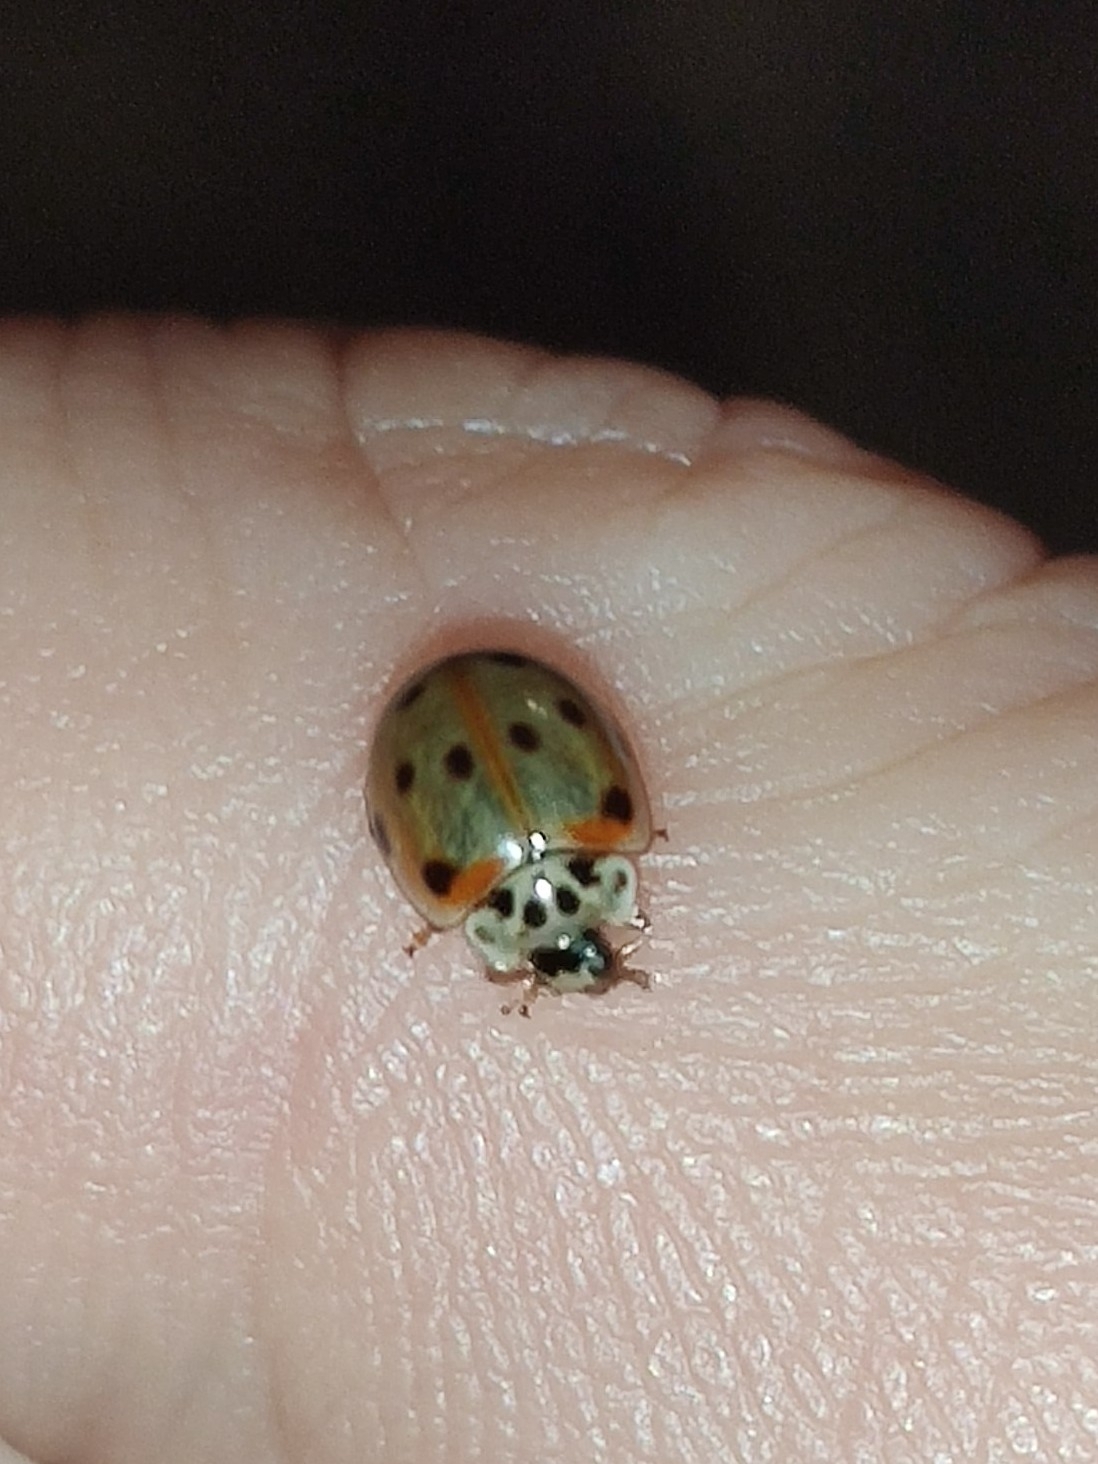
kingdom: Animalia
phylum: Arthropoda
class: Insecta
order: Coleoptera
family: Coccinellidae
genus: Adalia
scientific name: Adalia decempunctata
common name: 10-spot ladybird
